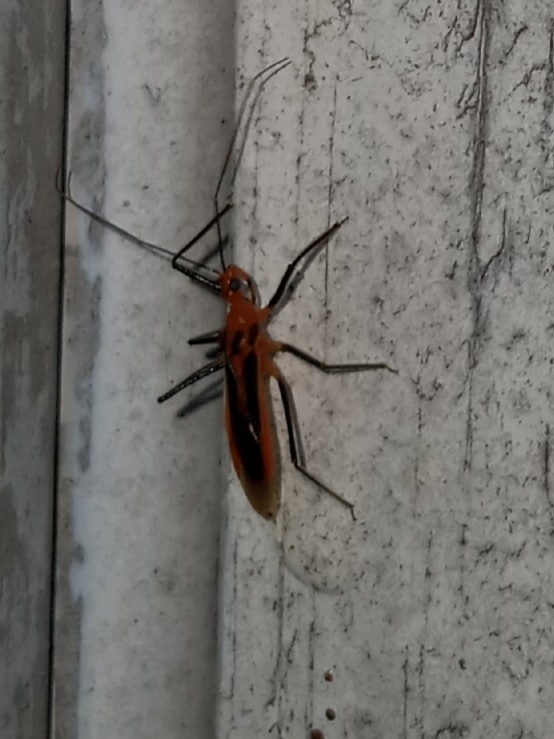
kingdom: Animalia
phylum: Arthropoda
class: Insecta
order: Hemiptera
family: Reduviidae
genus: Repipta
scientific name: Repipta taurus
